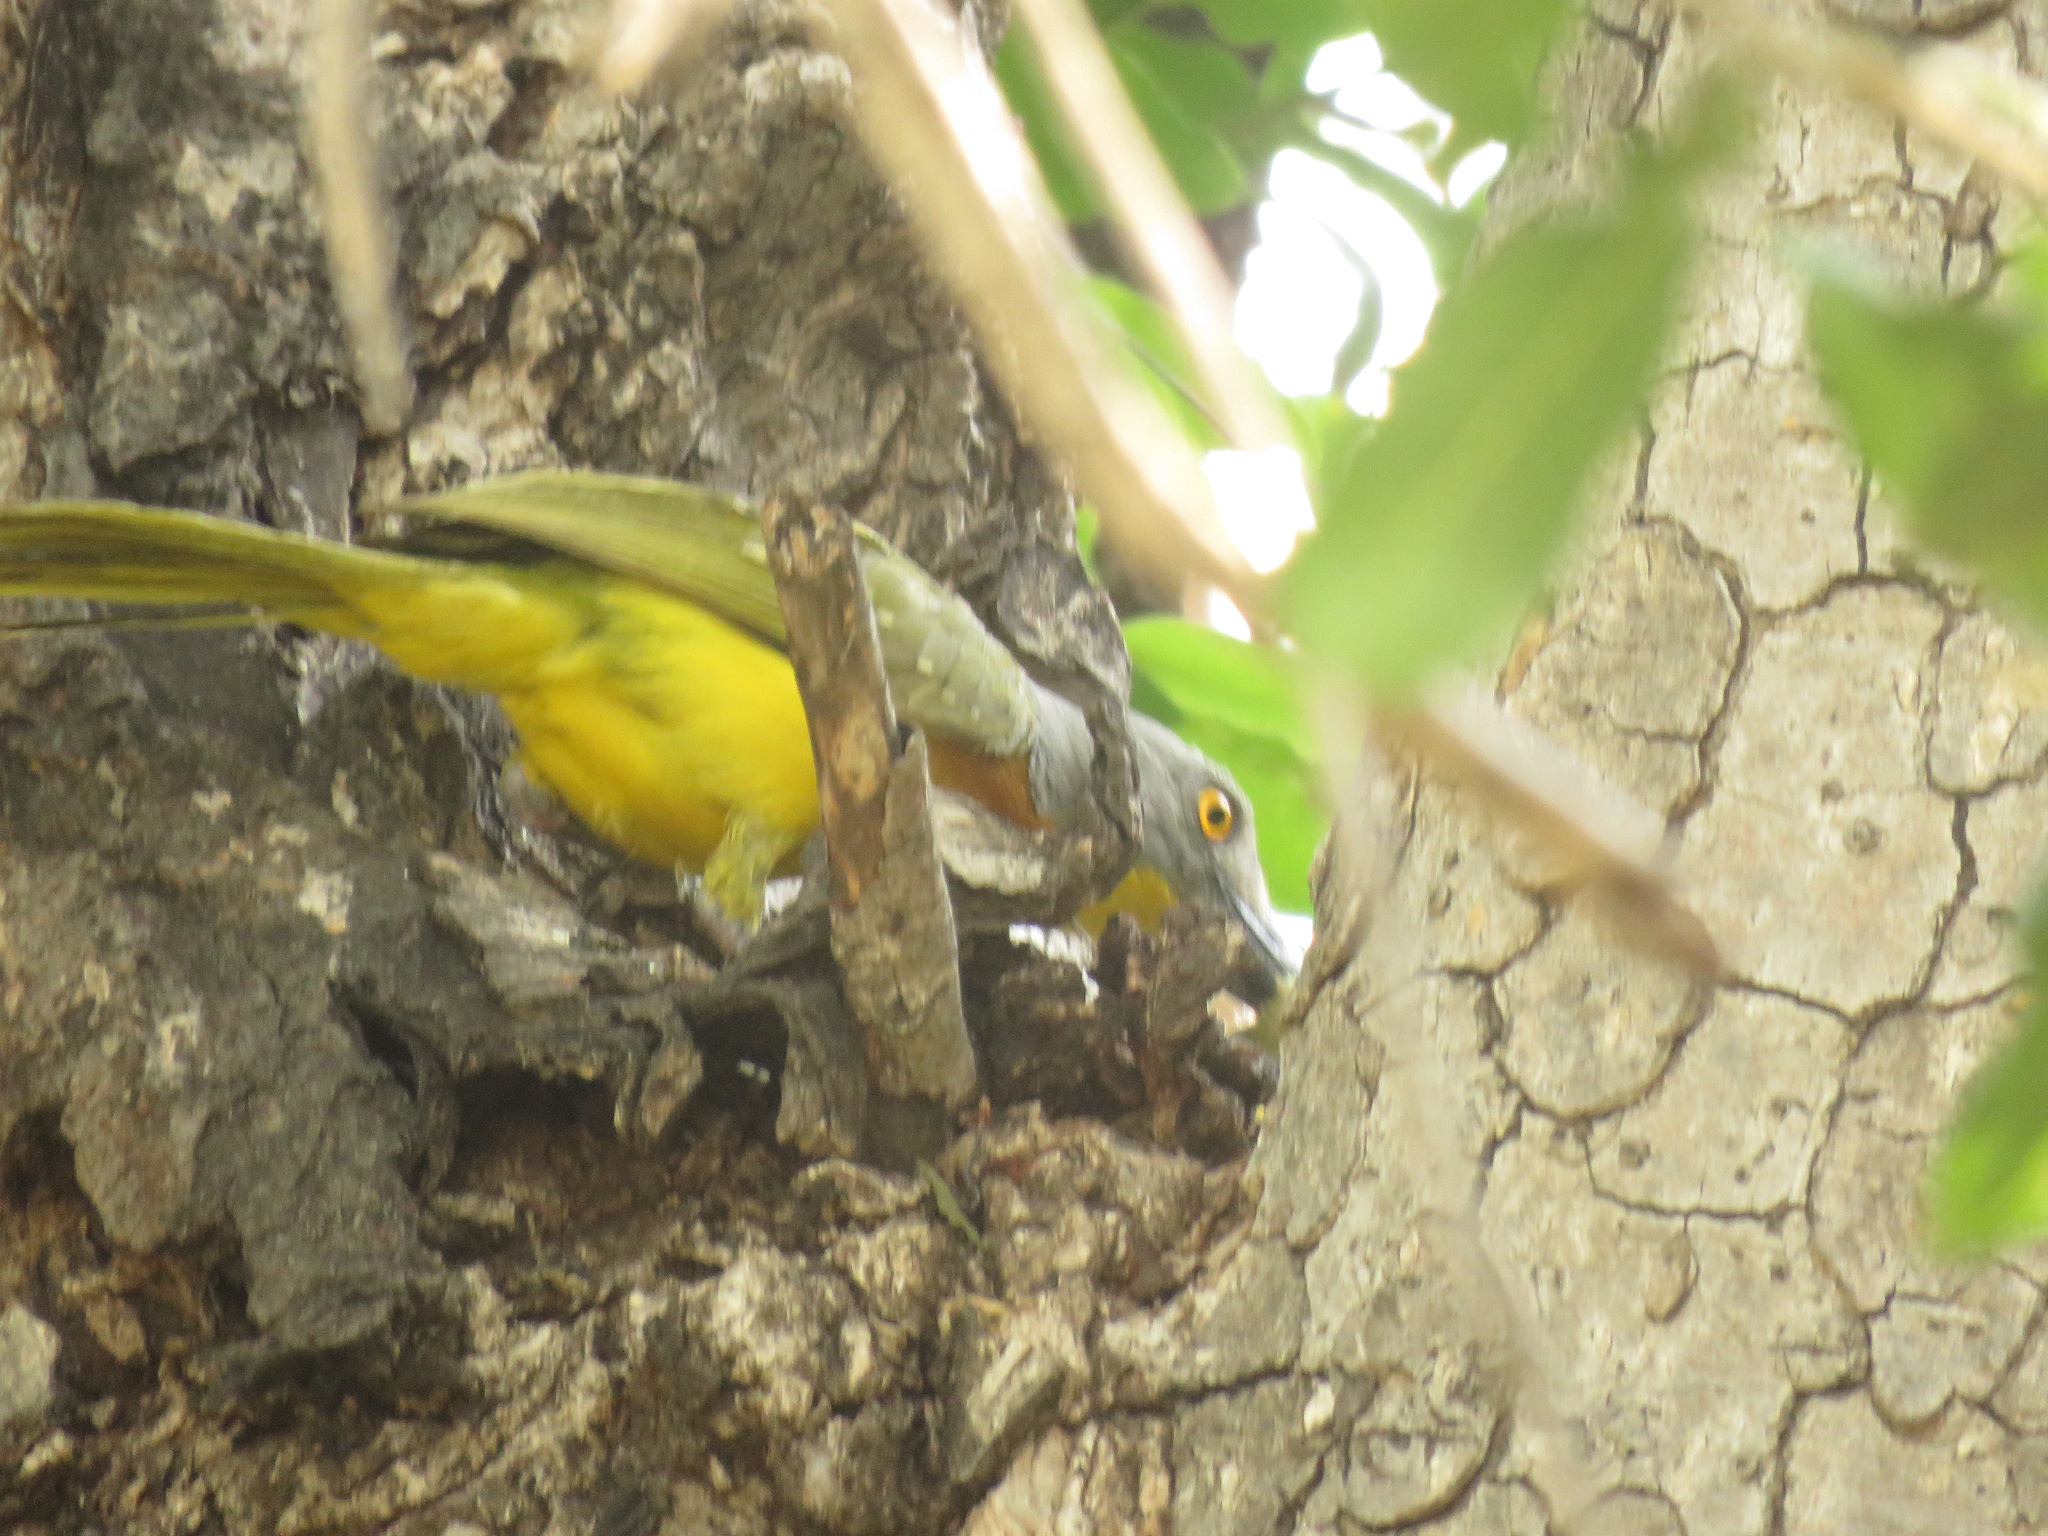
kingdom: Animalia
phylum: Chordata
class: Aves
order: Passeriformes
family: Malaconotidae
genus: Malaconotus
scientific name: Malaconotus blanchoti
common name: Grey-headed bushshrike
